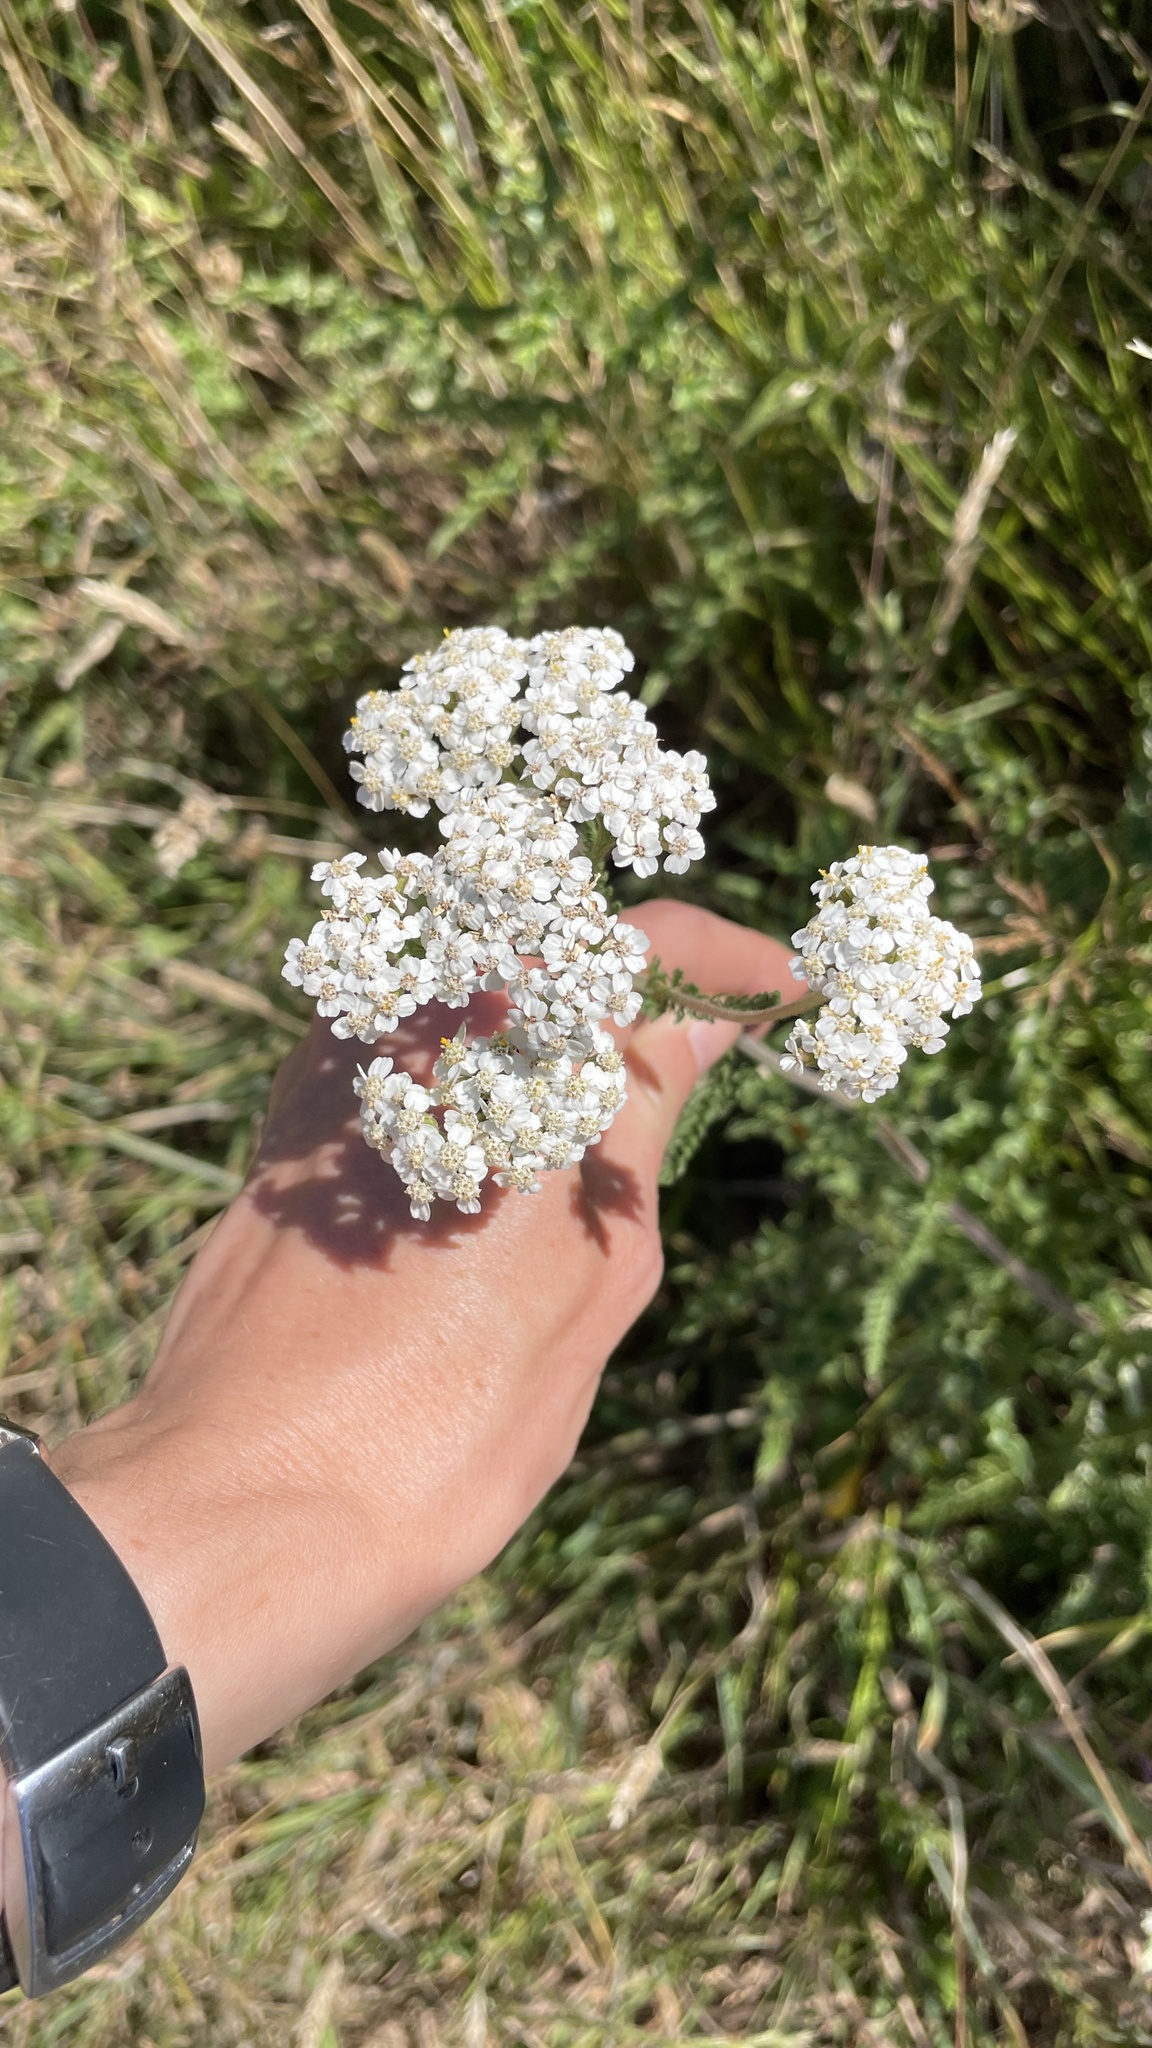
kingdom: Plantae
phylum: Tracheophyta
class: Magnoliopsida
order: Asterales
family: Asteraceae
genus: Achillea
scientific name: Achillea millefolium
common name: Yarrow
